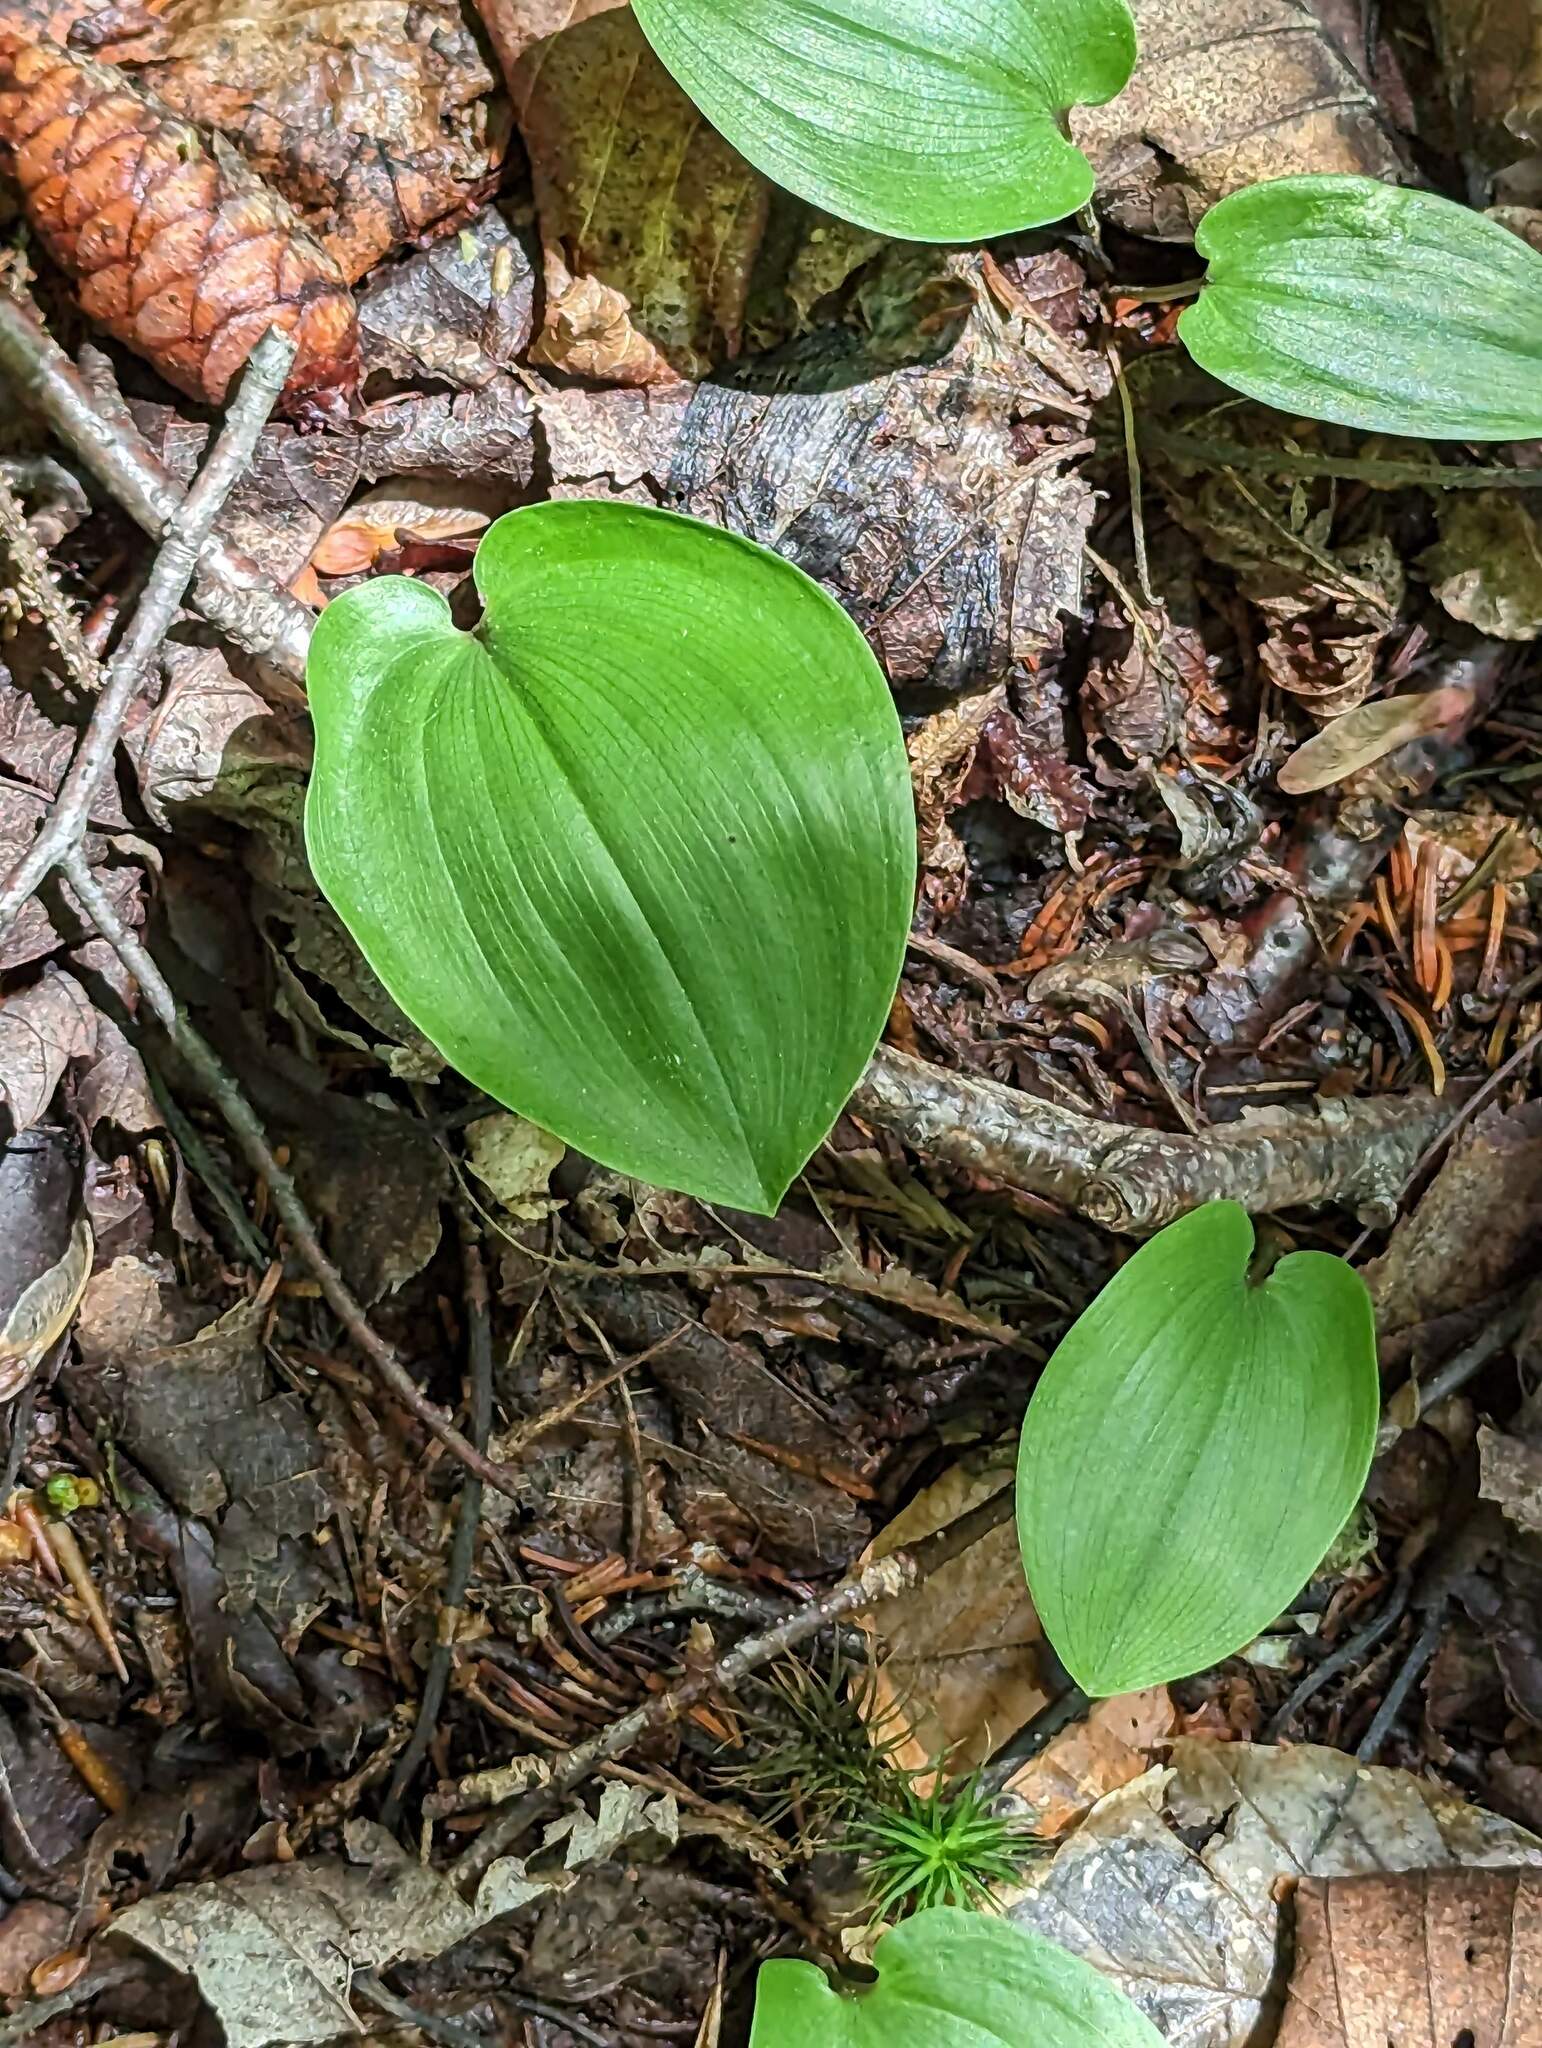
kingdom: Plantae
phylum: Tracheophyta
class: Liliopsida
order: Asparagales
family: Asparagaceae
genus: Maianthemum
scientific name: Maianthemum canadense
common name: False lily-of-the-valley
